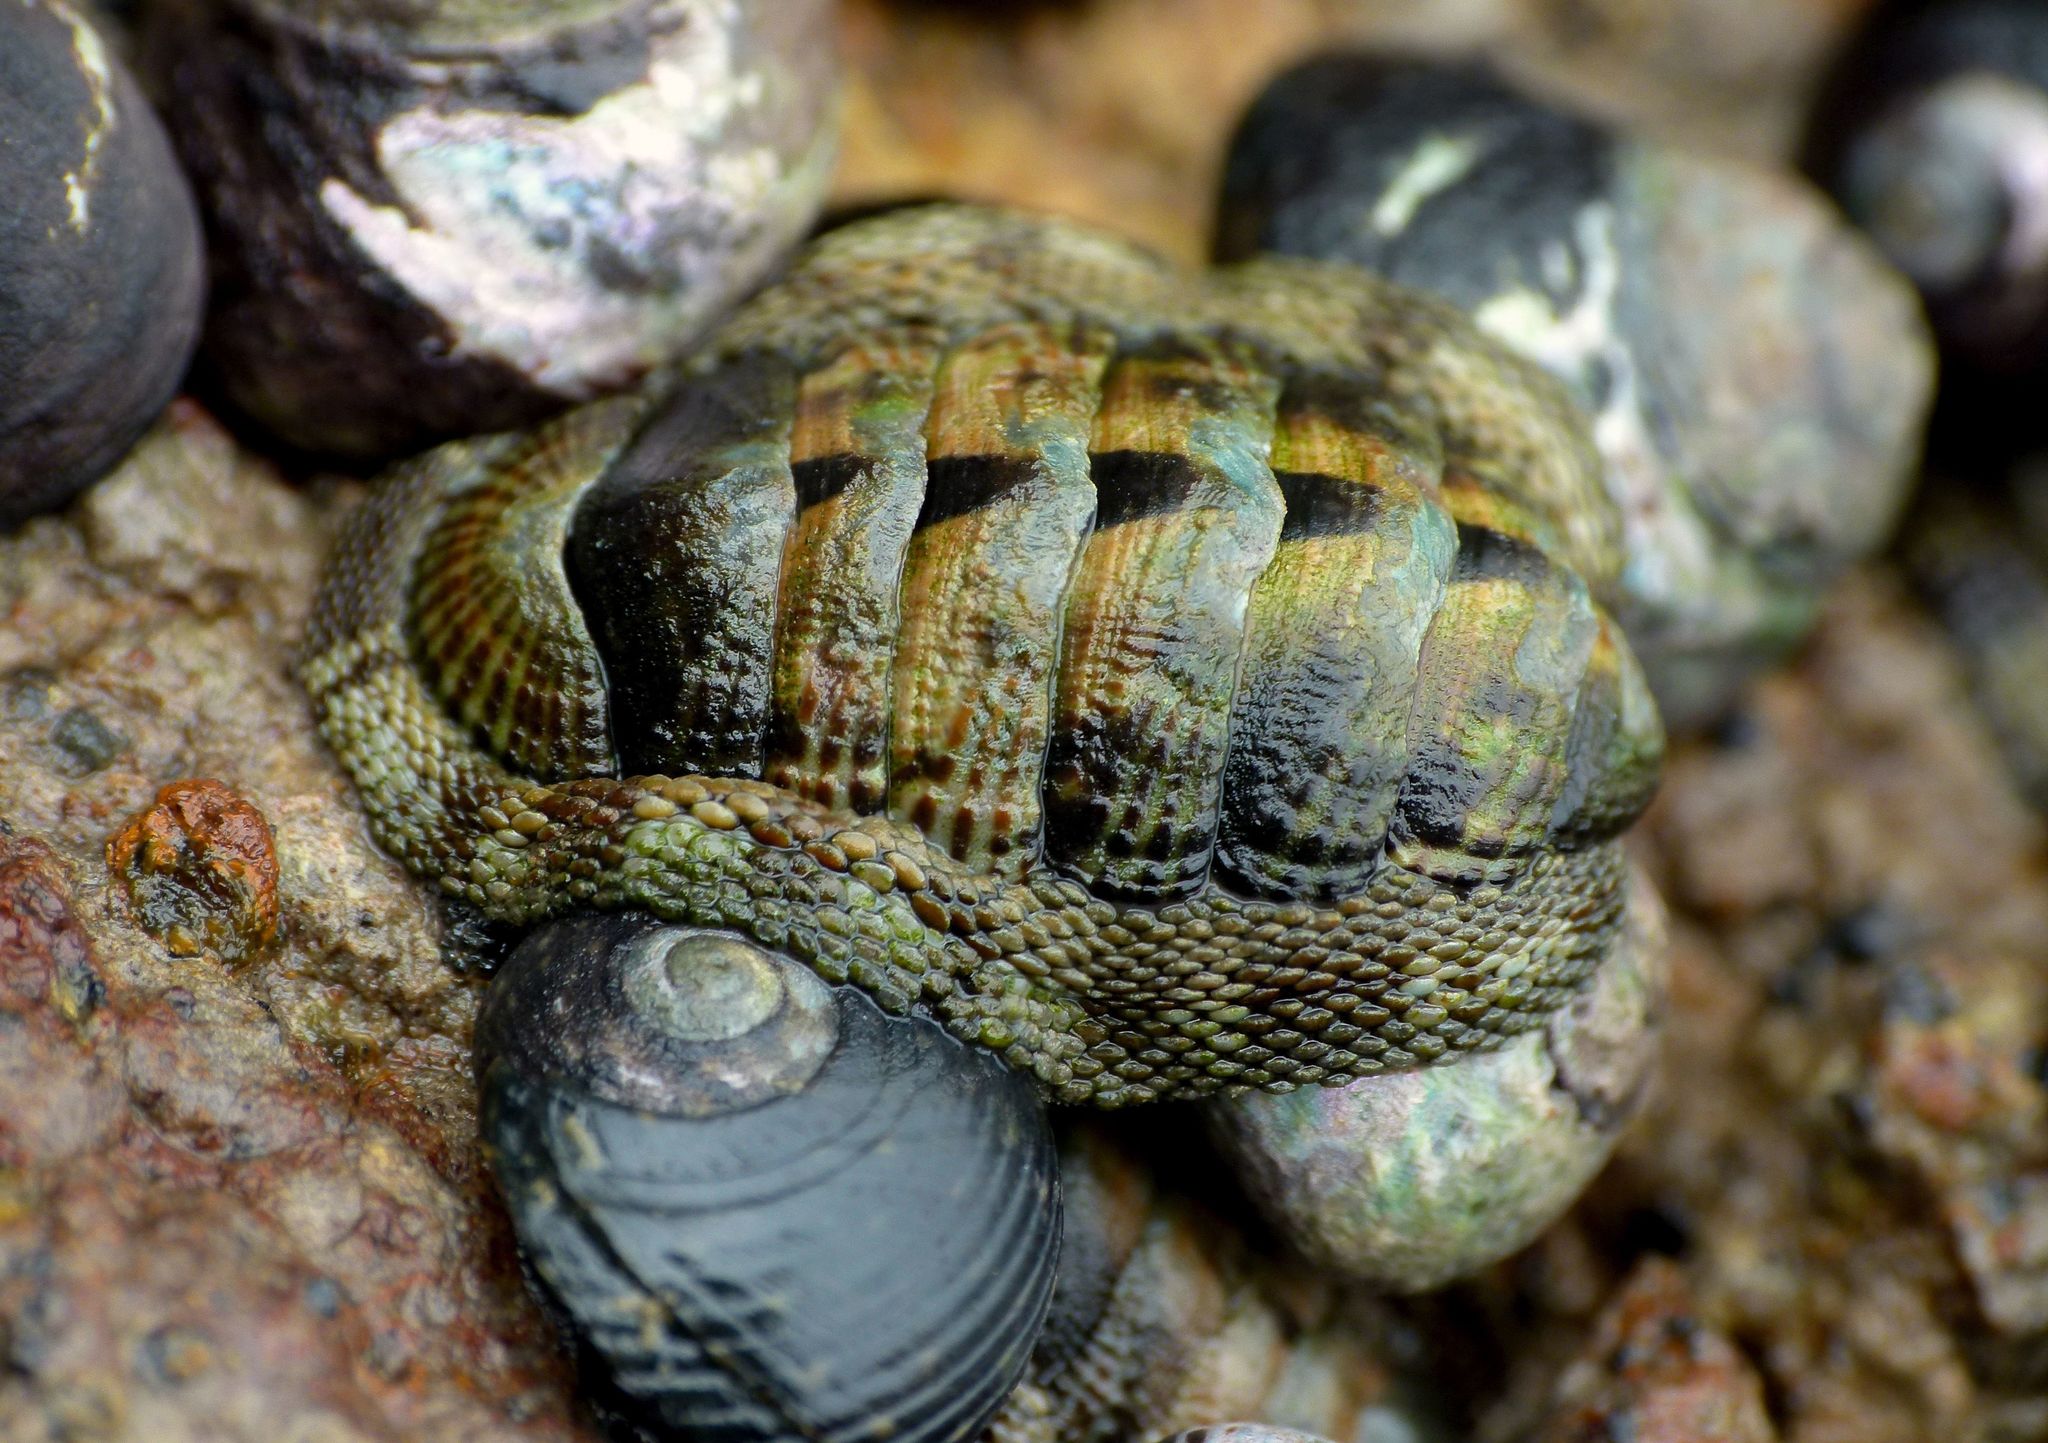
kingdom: Animalia
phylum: Mollusca
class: Polyplacophora
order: Chitonida
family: Chitonidae
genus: Sypharochiton
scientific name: Sypharochiton pelliserpentis
